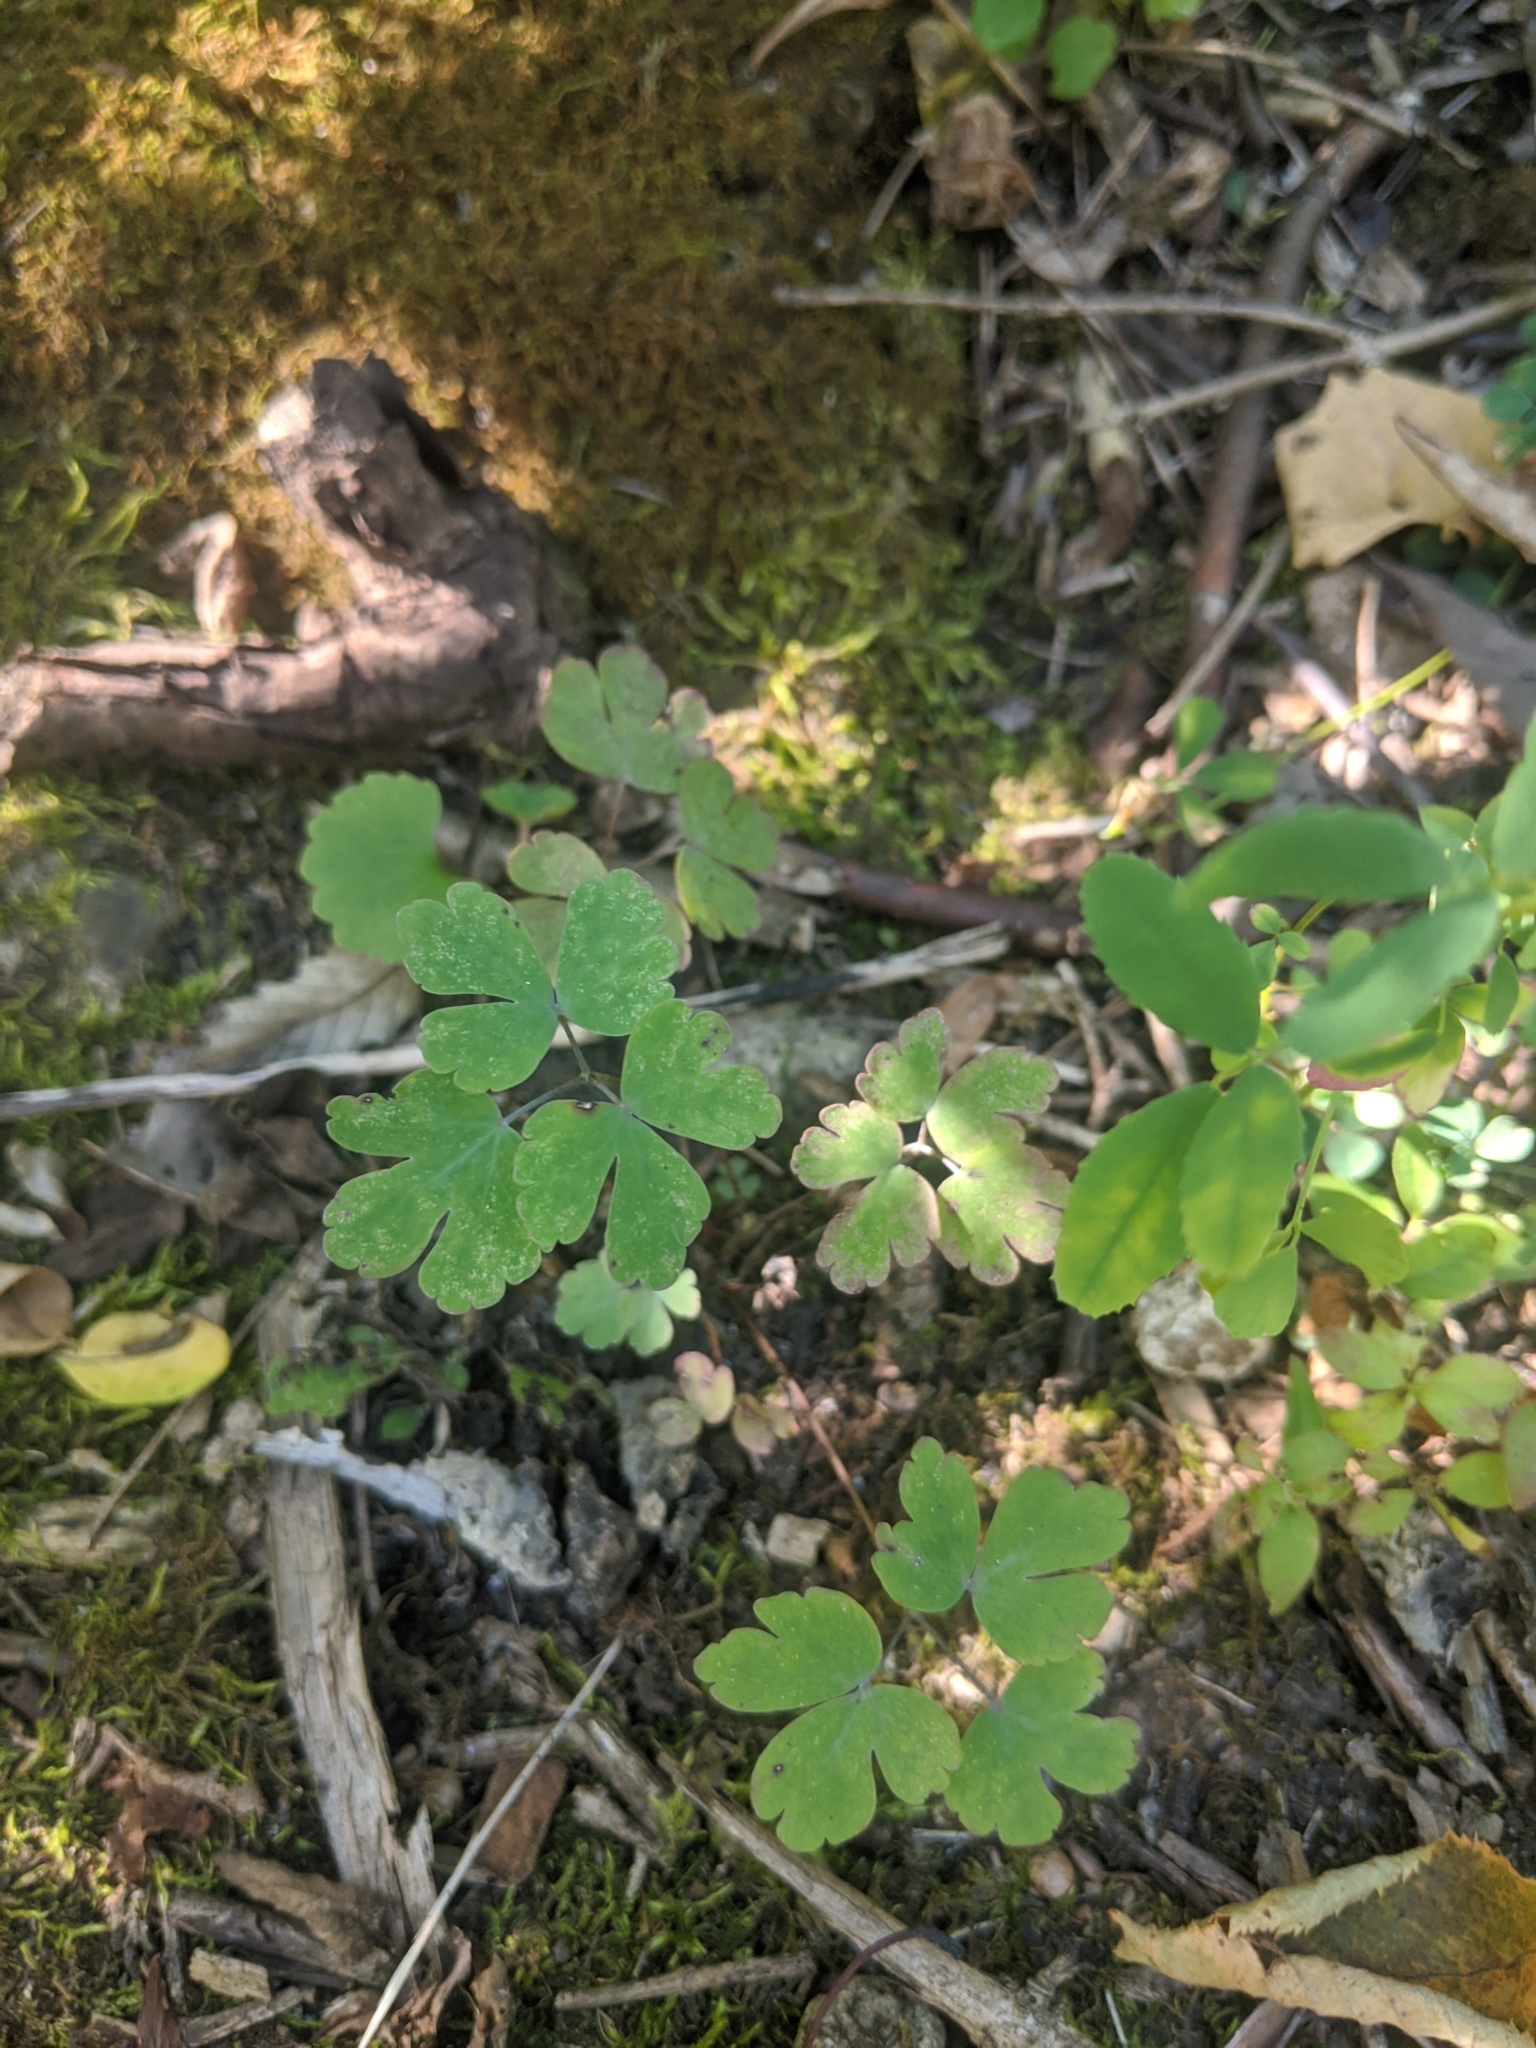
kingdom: Plantae
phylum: Tracheophyta
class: Magnoliopsida
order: Ranunculales
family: Ranunculaceae
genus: Aquilegia
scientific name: Aquilegia canadensis
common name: American columbine
